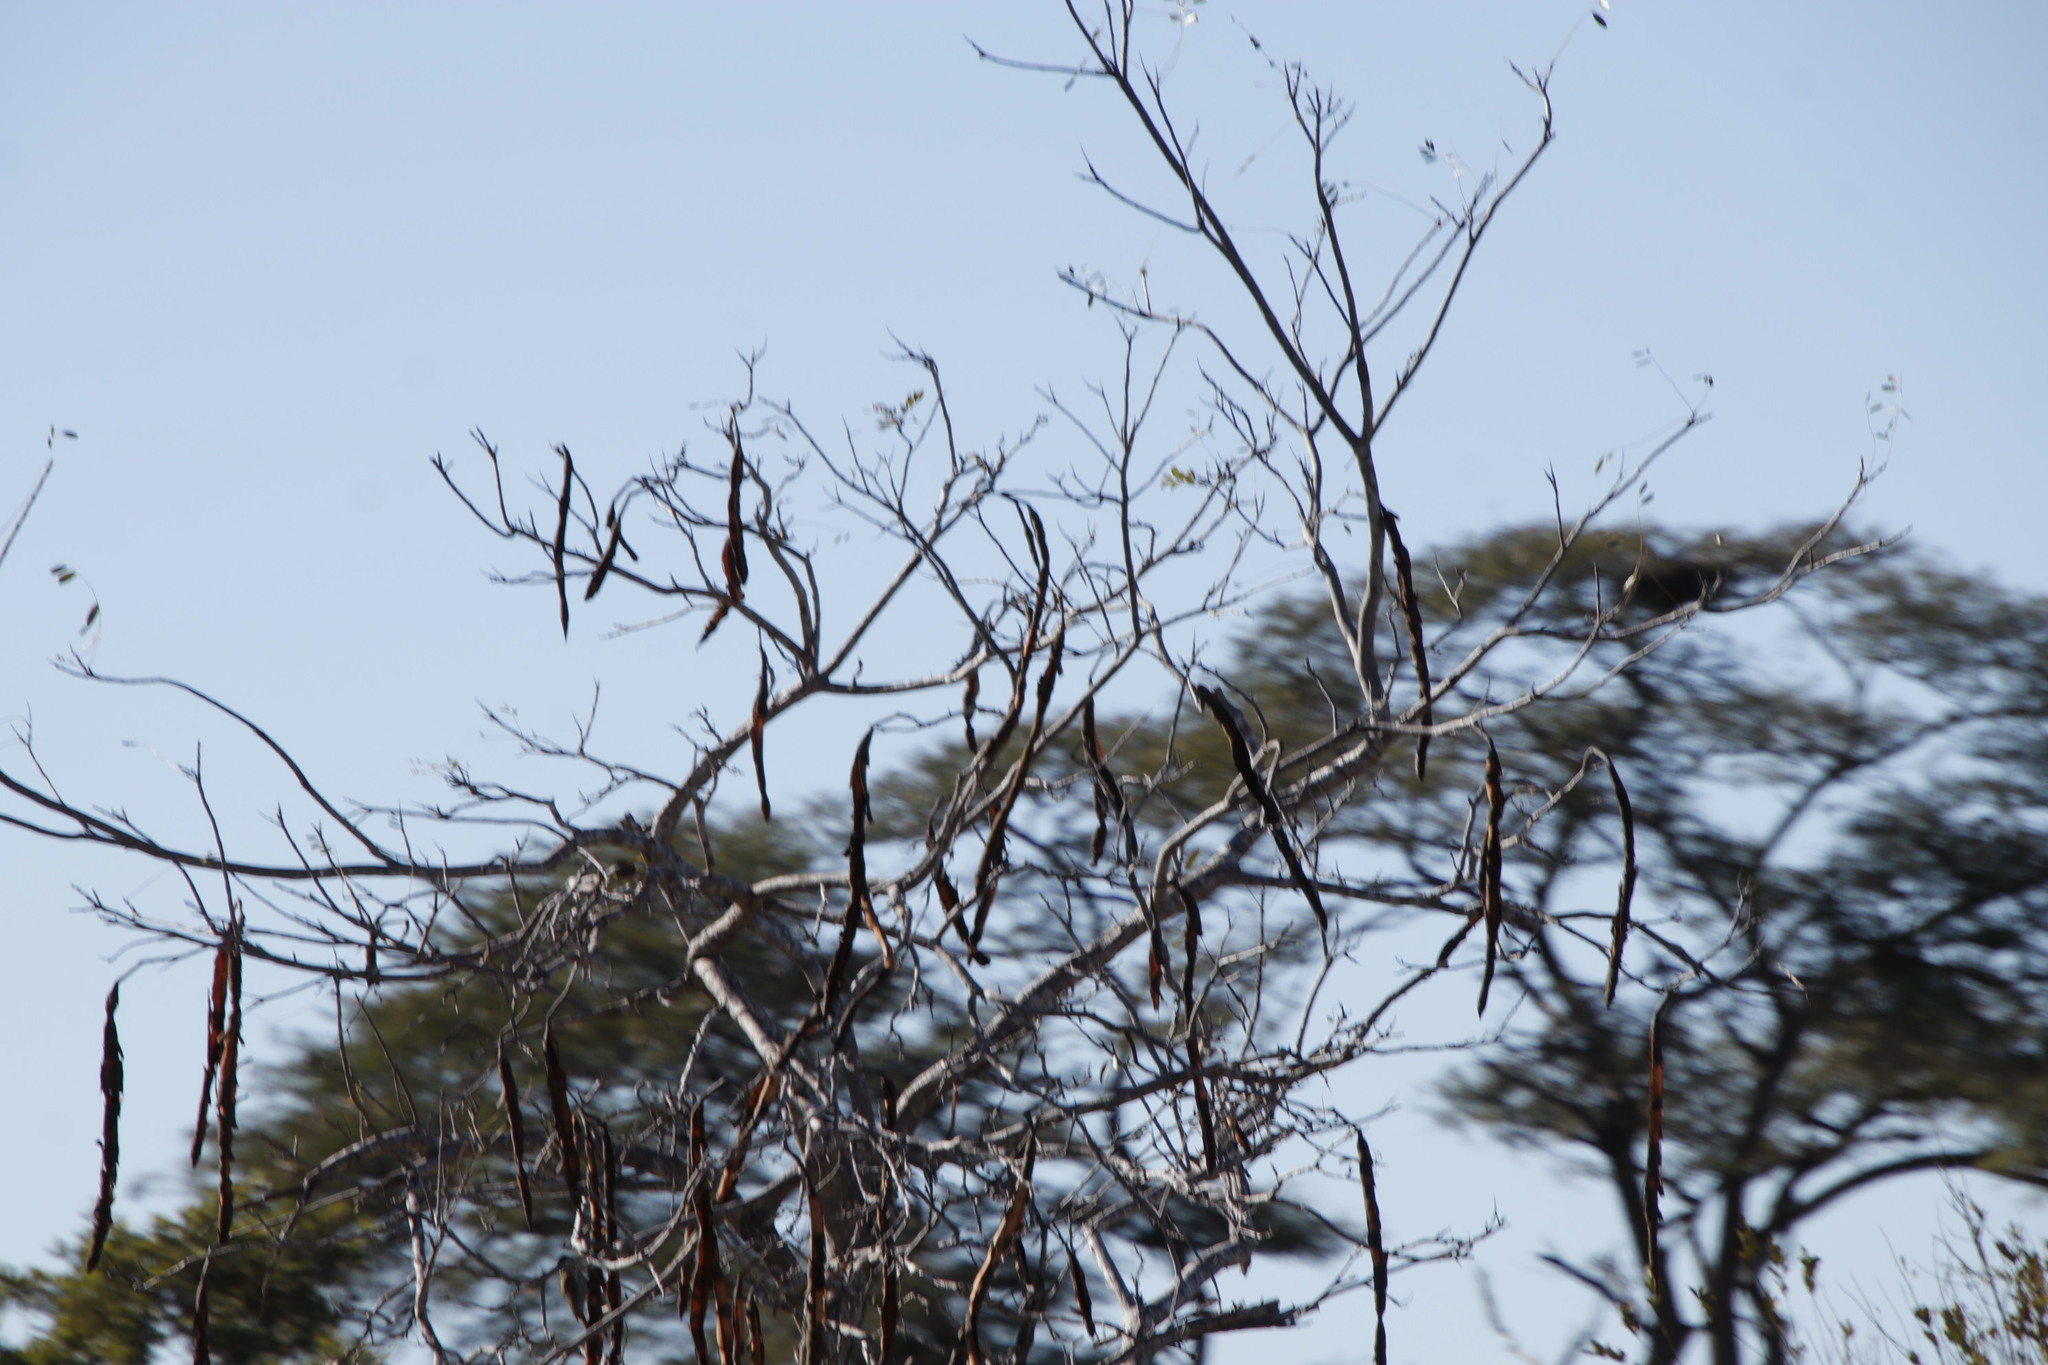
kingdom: Plantae
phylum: Tracheophyta
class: Magnoliopsida
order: Fabales
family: Fabaceae
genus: Cassia
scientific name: Cassia abbreviata
